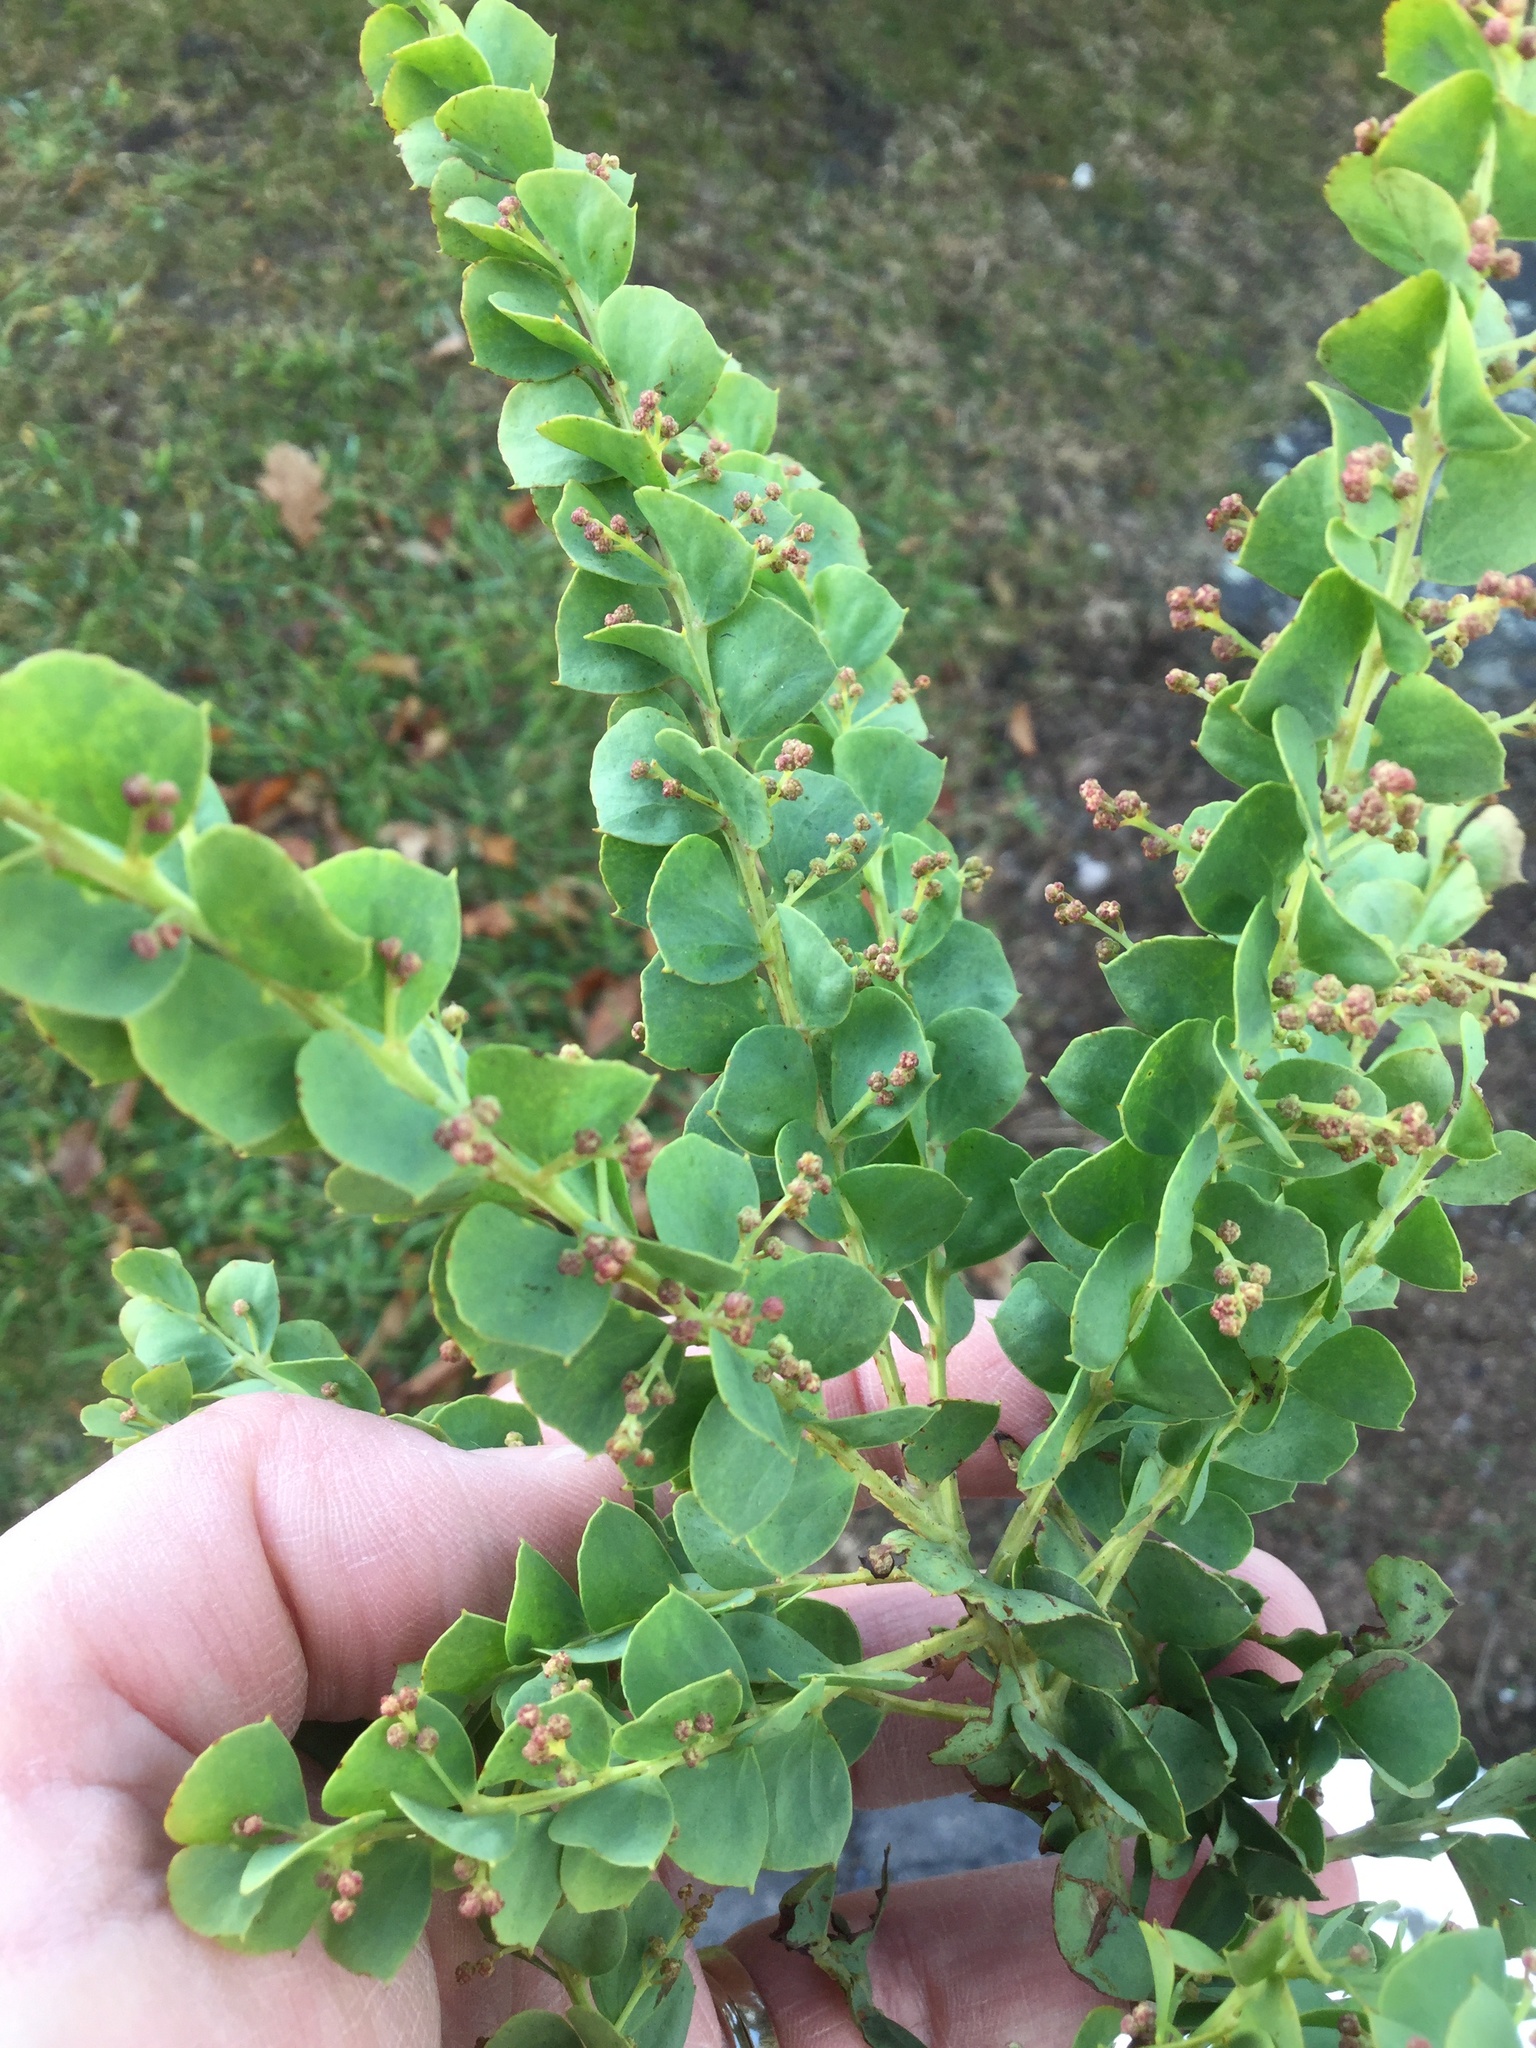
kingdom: Plantae
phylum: Tracheophyta
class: Magnoliopsida
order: Fabales
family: Fabaceae
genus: Acacia
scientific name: Acacia pravissima
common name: Tumut wattle
